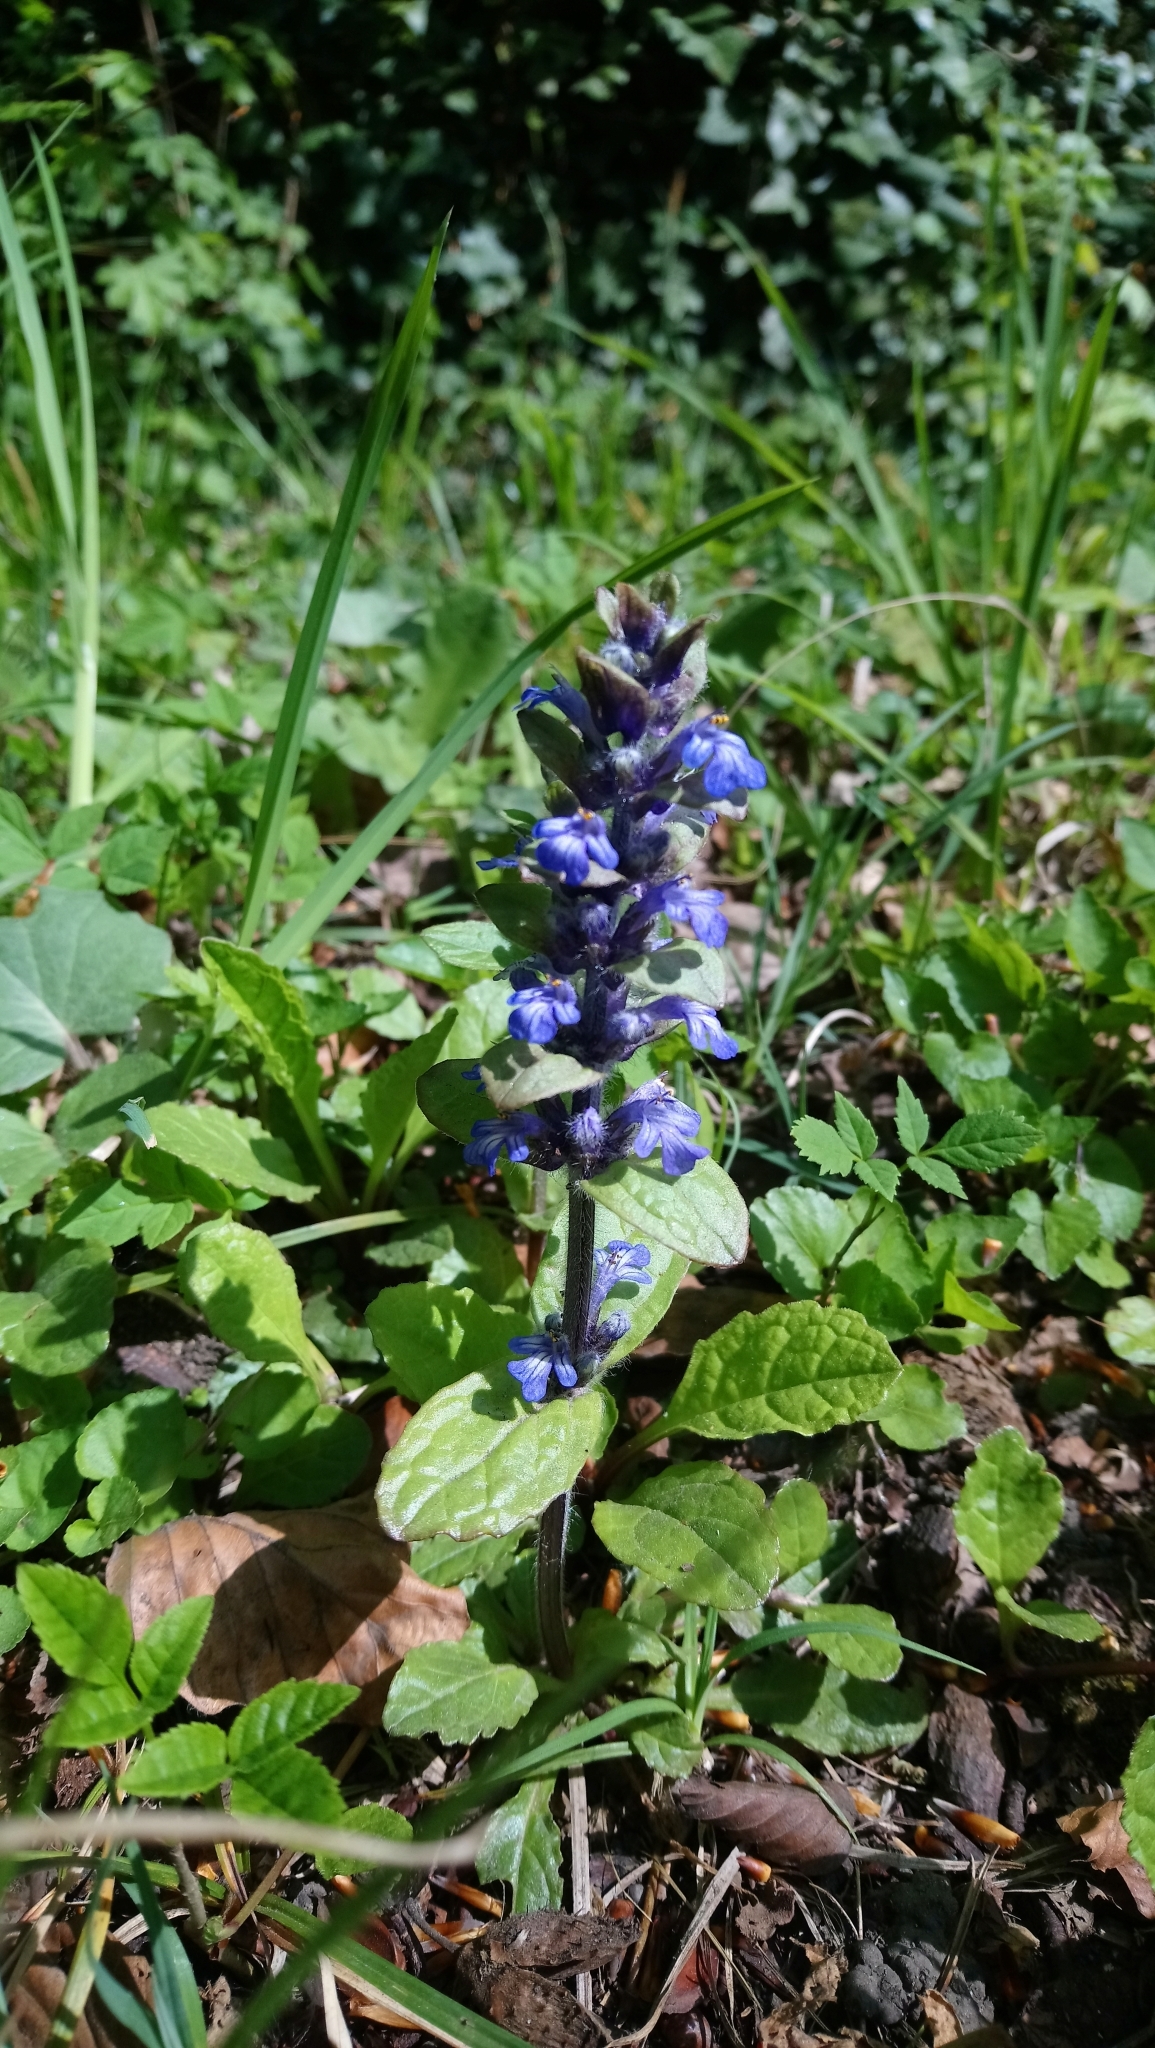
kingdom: Plantae
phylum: Tracheophyta
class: Magnoliopsida
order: Lamiales
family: Lamiaceae
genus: Ajuga
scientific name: Ajuga reptans
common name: Bugle
